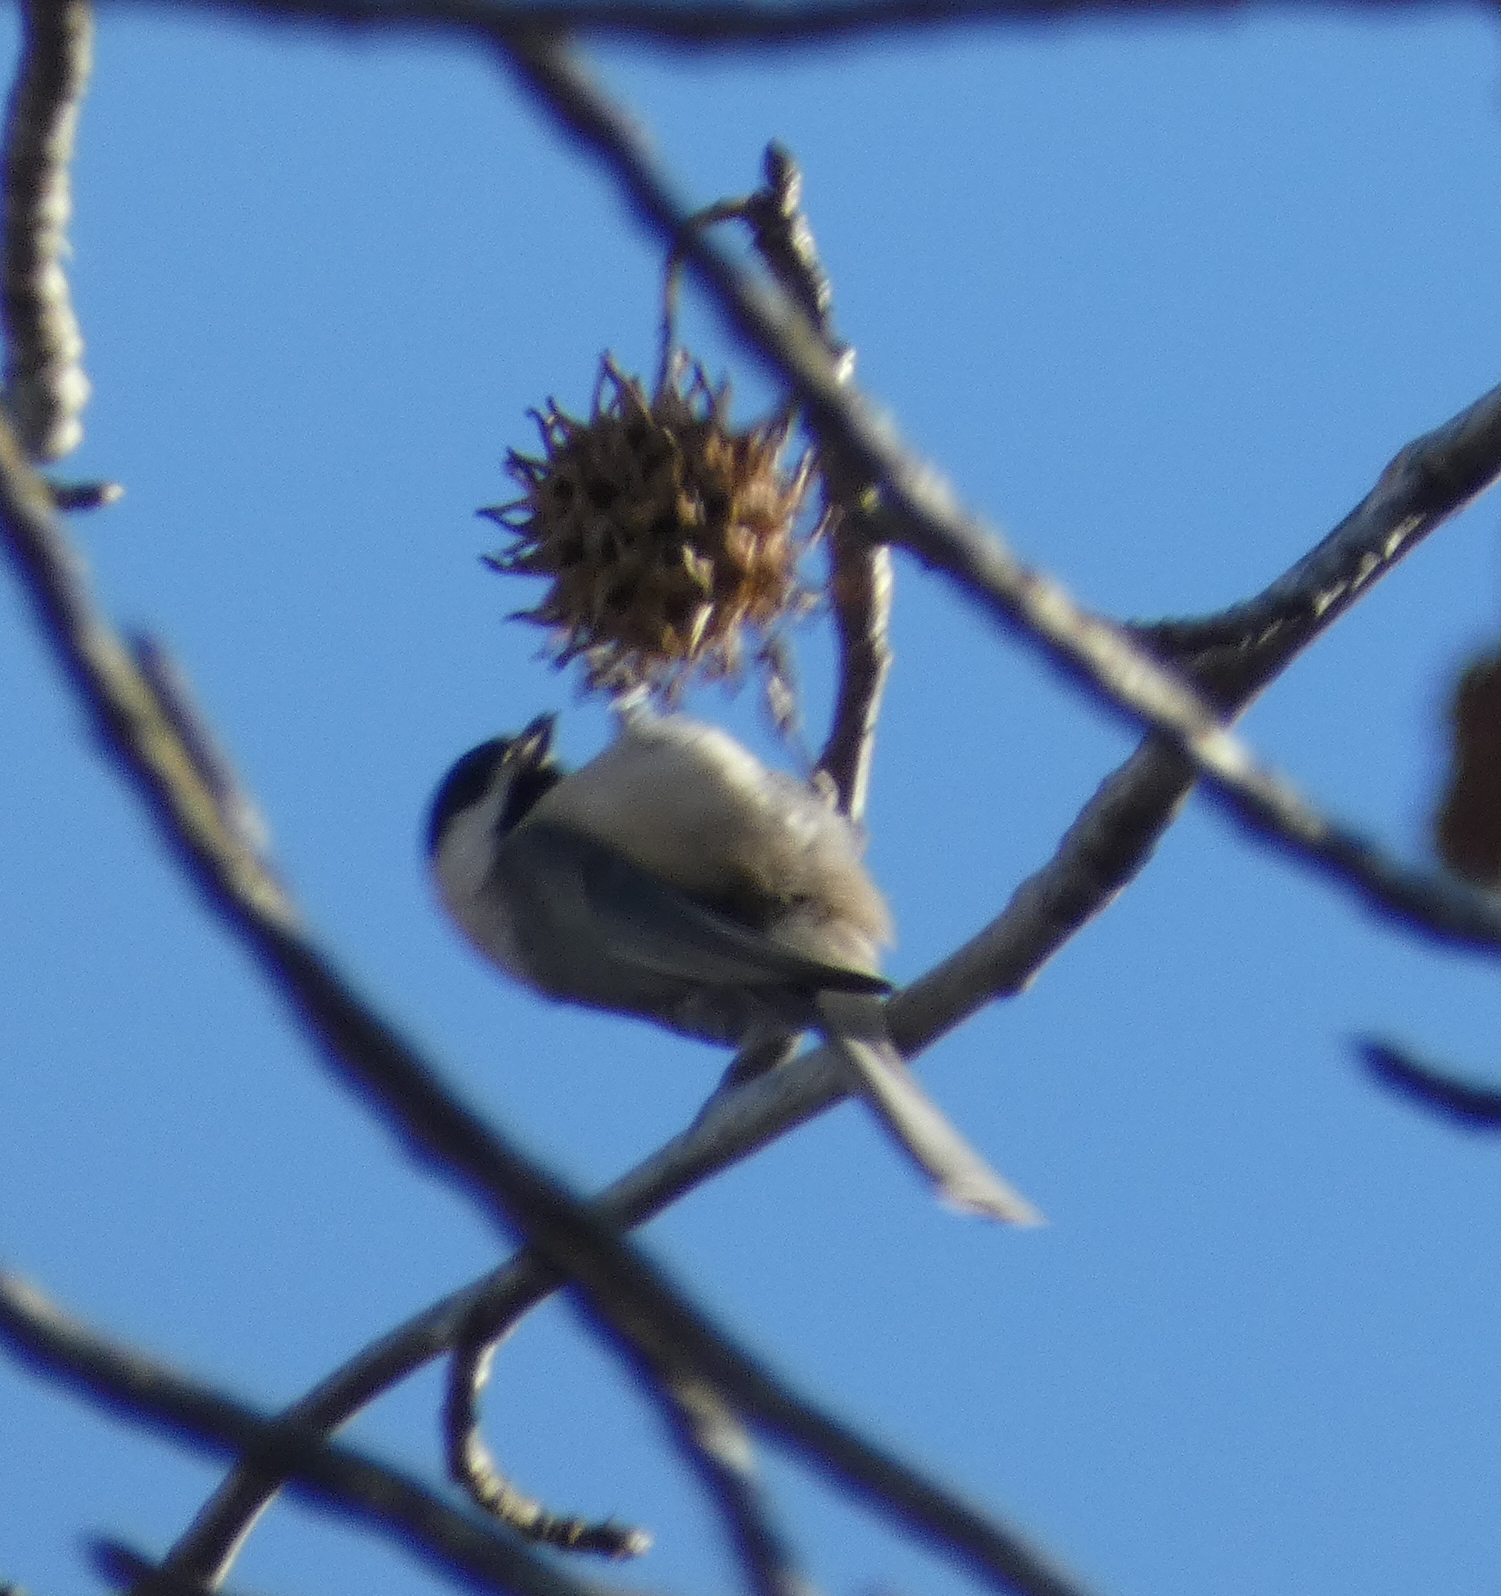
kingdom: Animalia
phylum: Chordata
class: Aves
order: Passeriformes
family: Paridae
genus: Poecile
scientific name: Poecile carolinensis
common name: Carolina chickadee
